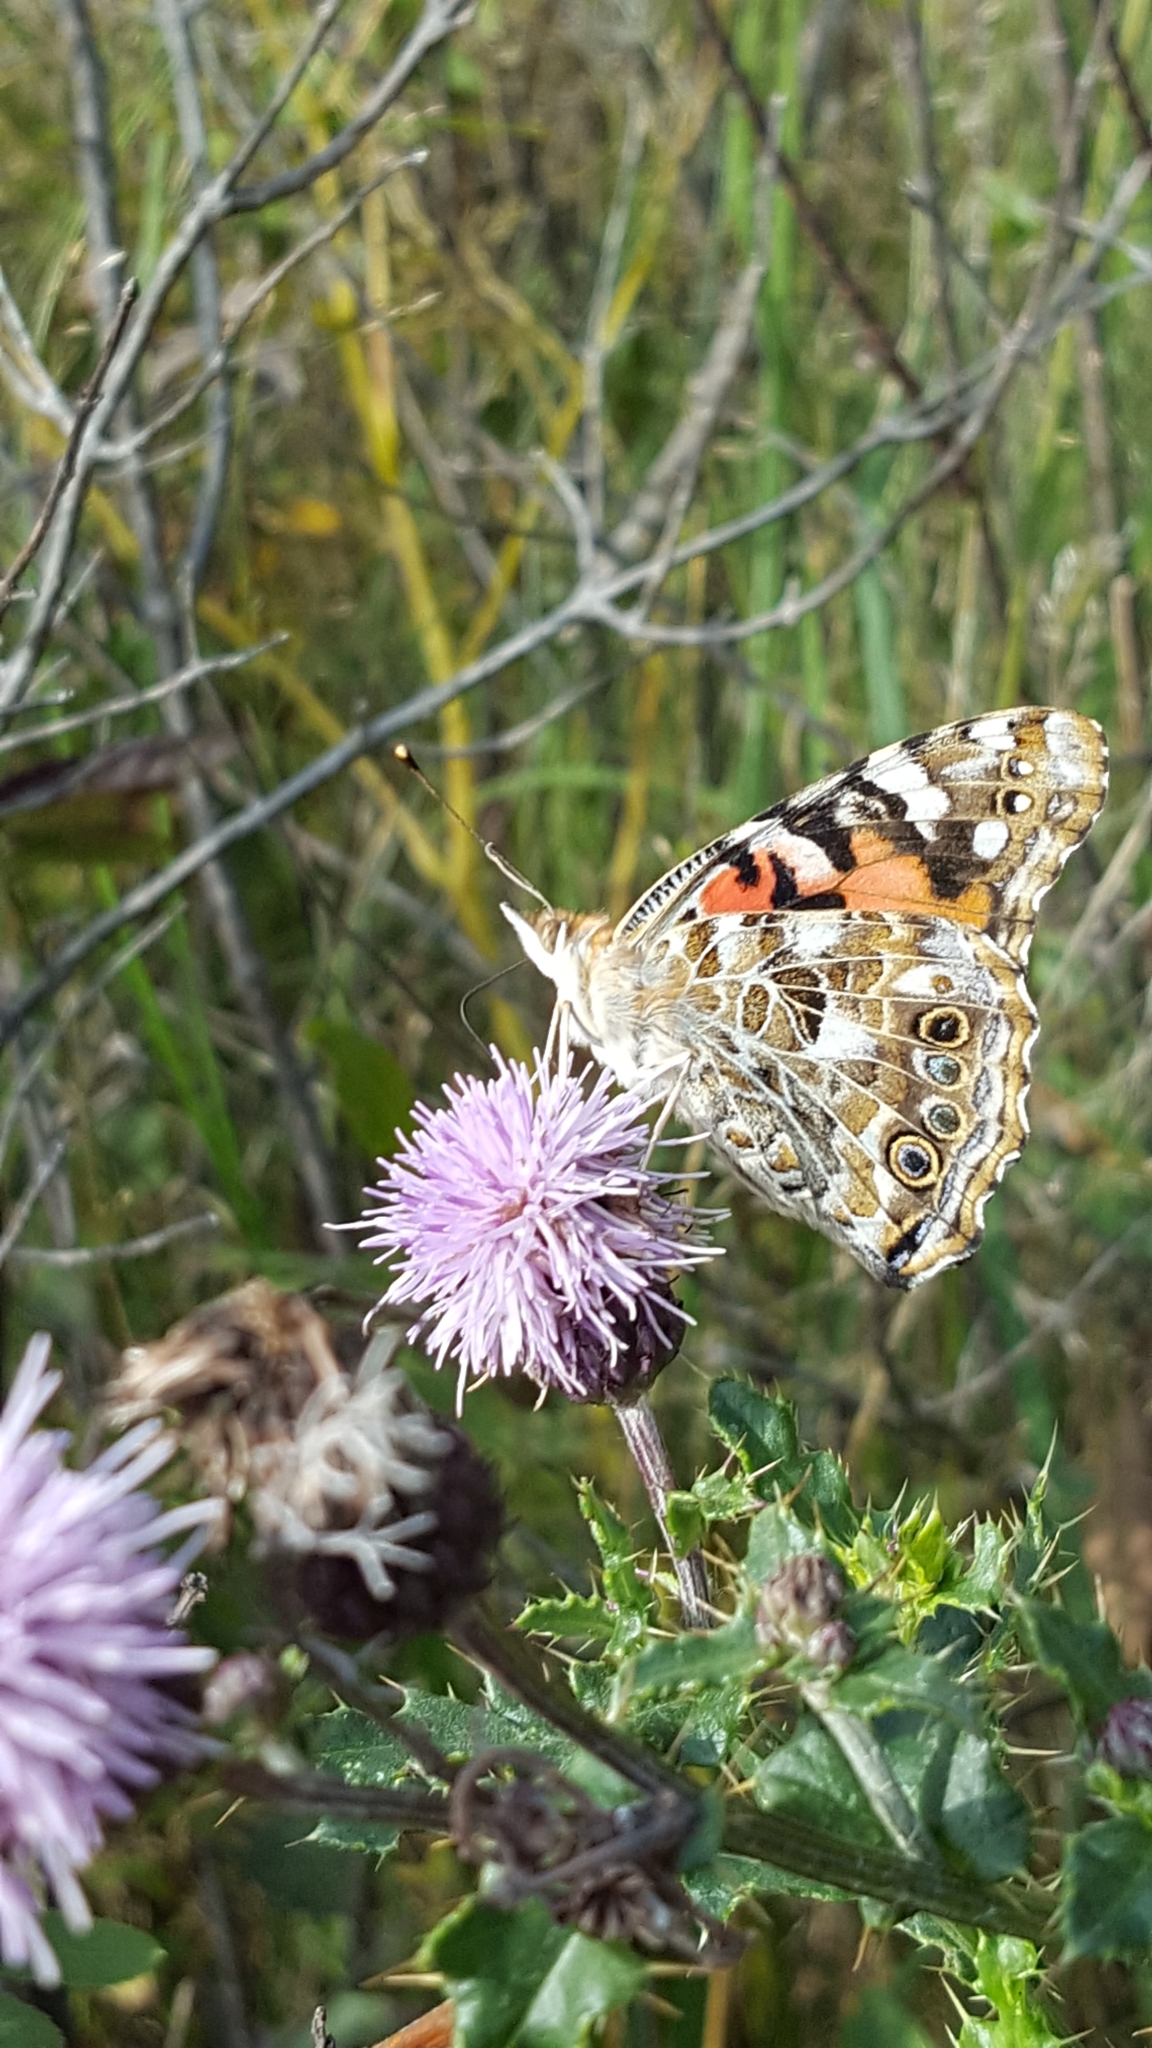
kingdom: Animalia
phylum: Arthropoda
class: Insecta
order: Lepidoptera
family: Nymphalidae
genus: Vanessa
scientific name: Vanessa cardui
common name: Painted lady
